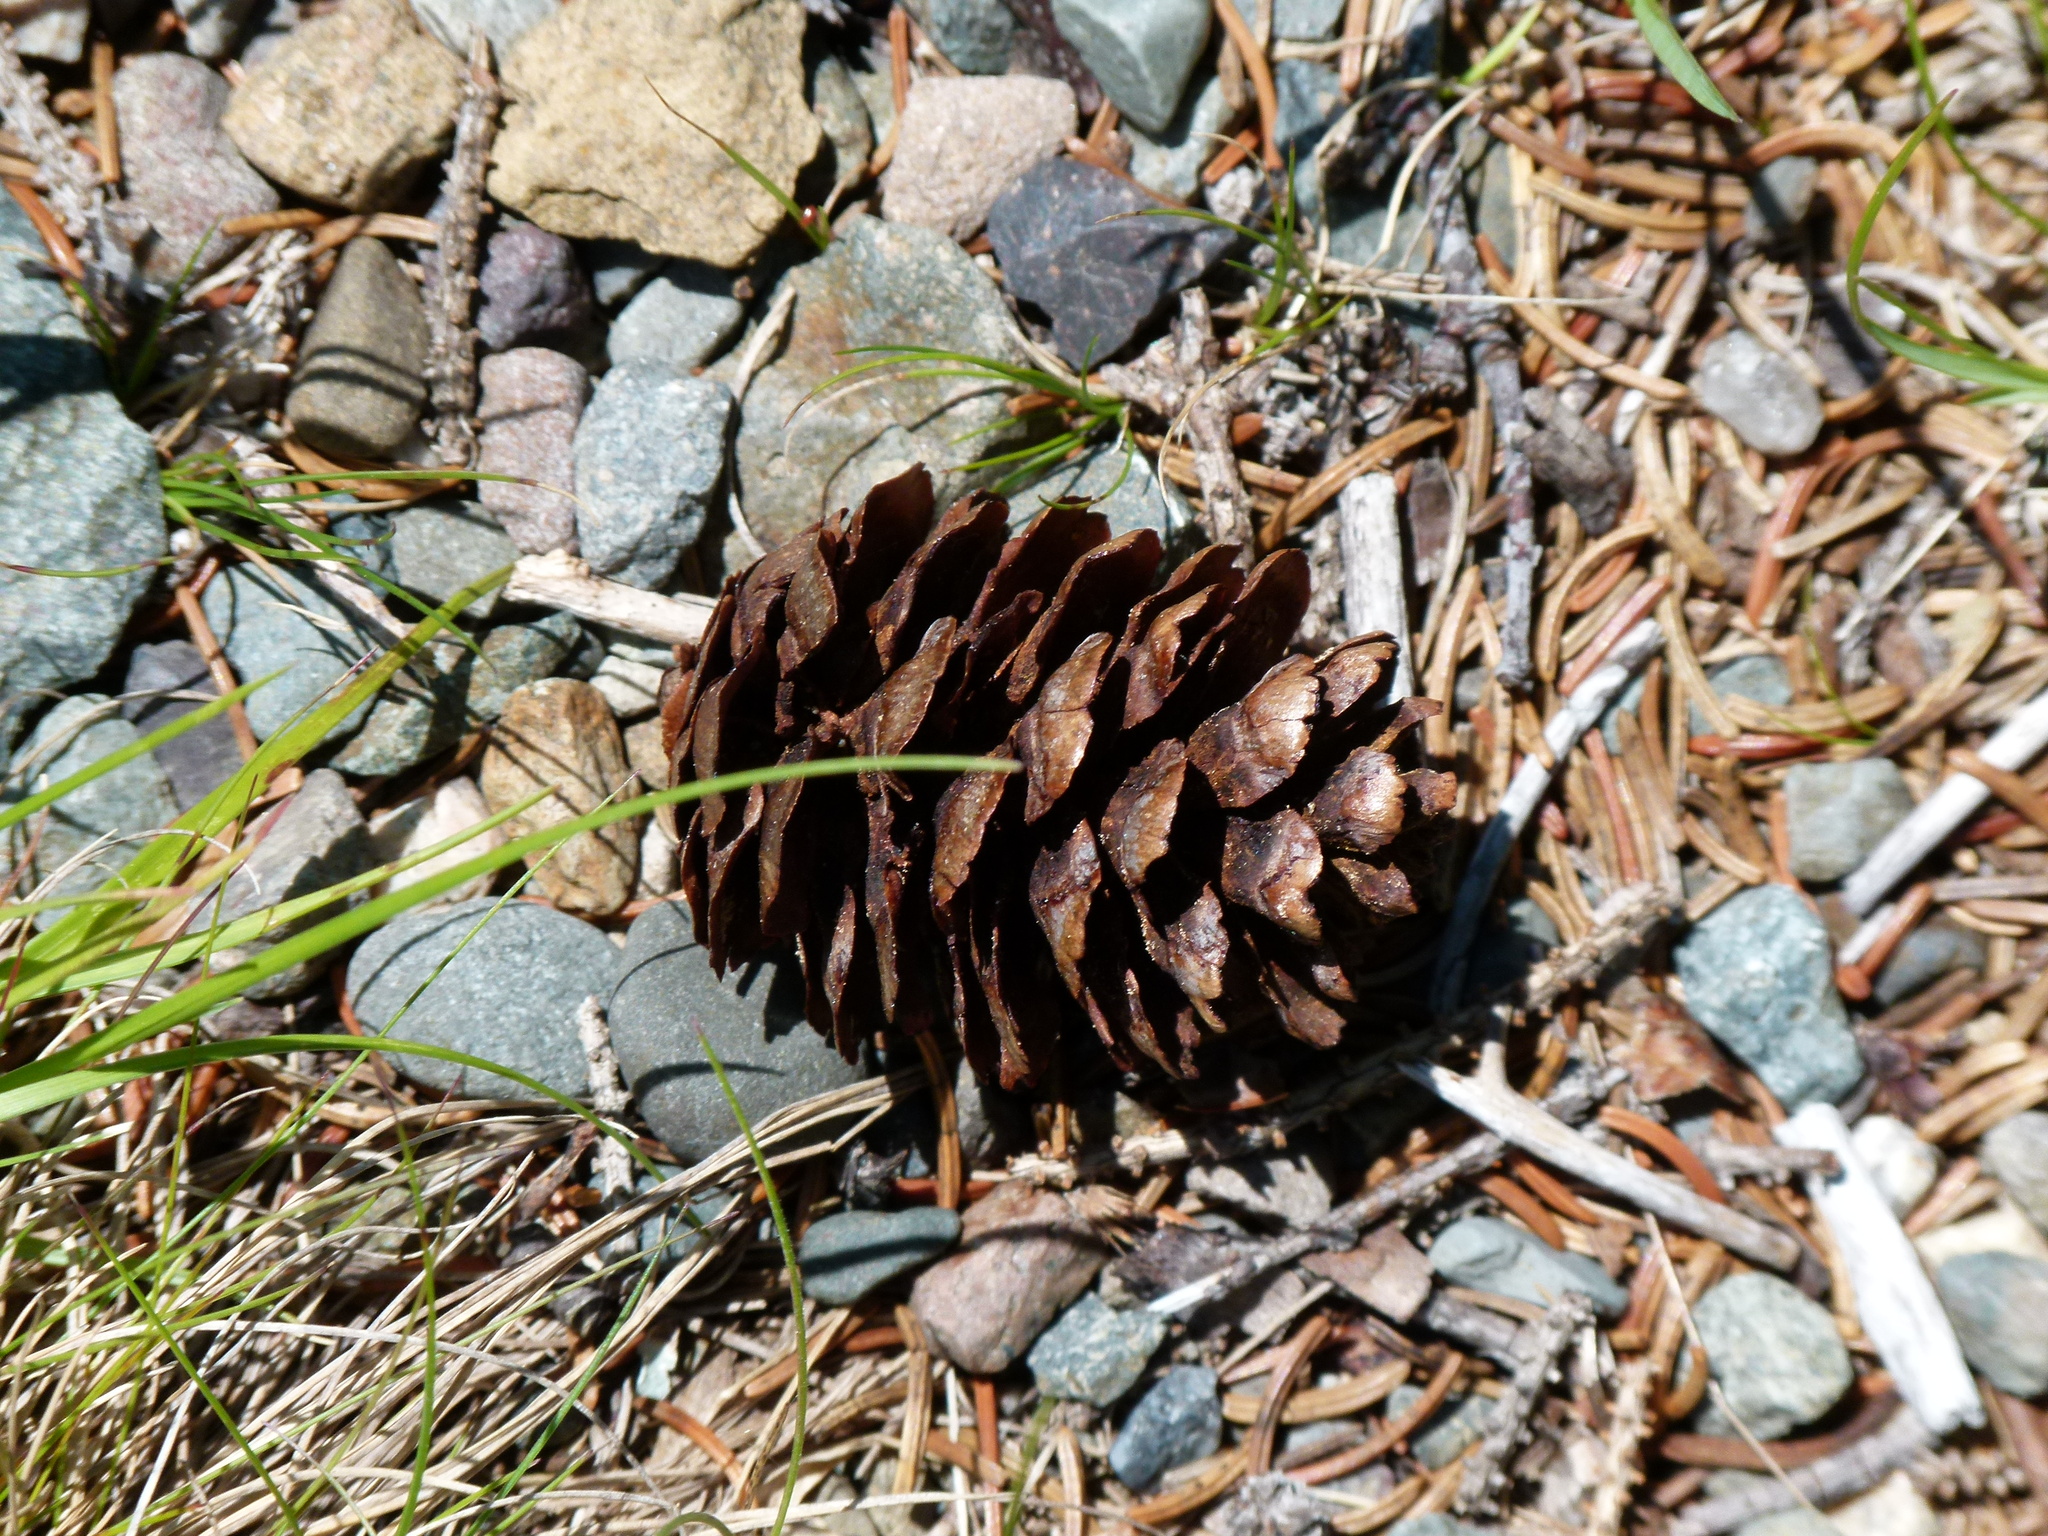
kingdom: Plantae
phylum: Tracheophyta
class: Pinopsida
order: Pinales
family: Pinaceae
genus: Picea
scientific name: Picea mariana
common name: Black spruce
